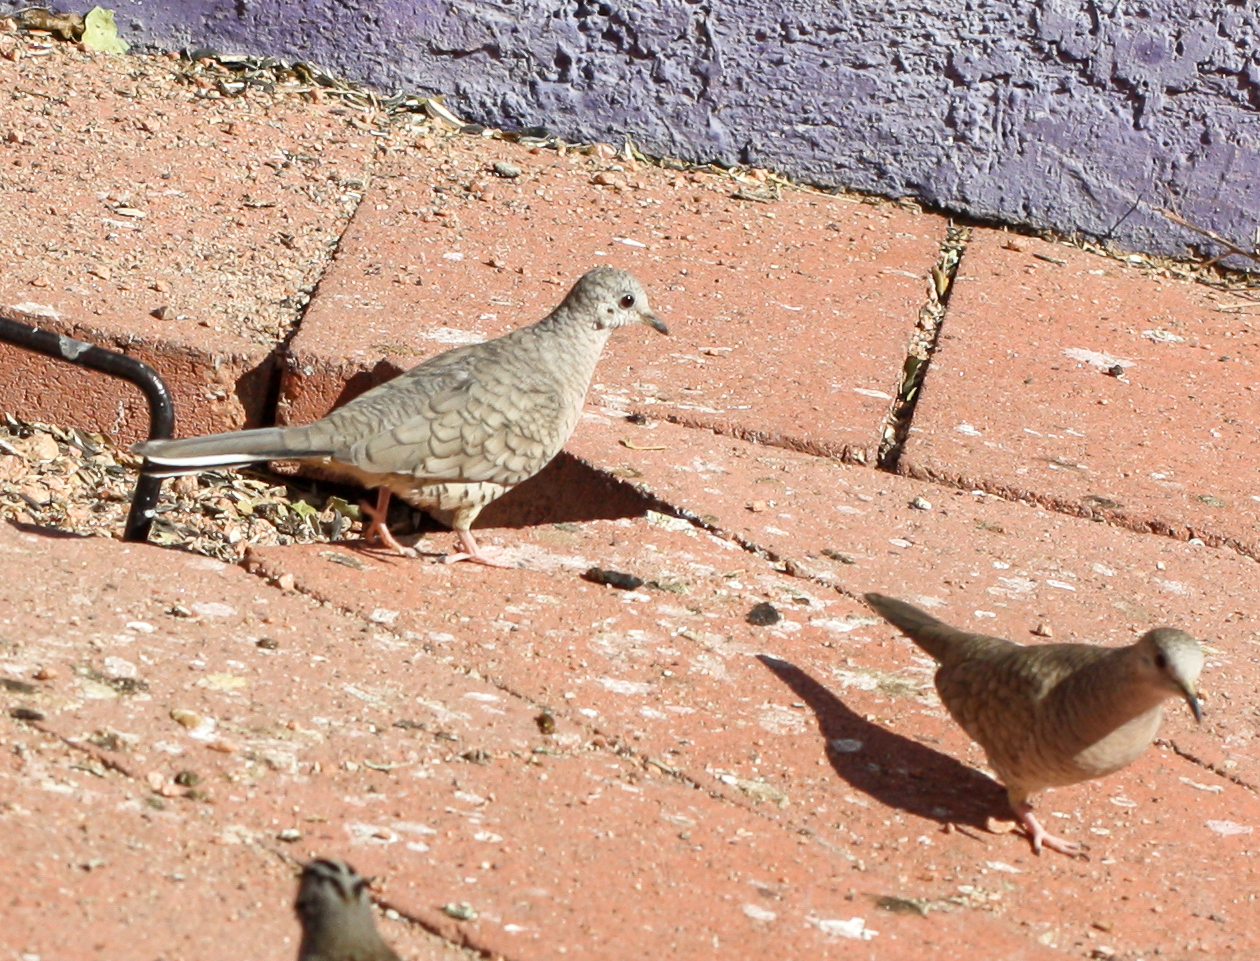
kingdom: Animalia
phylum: Chordata
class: Aves
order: Columbiformes
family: Columbidae
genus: Columbina
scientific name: Columbina inca
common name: Inca dove
